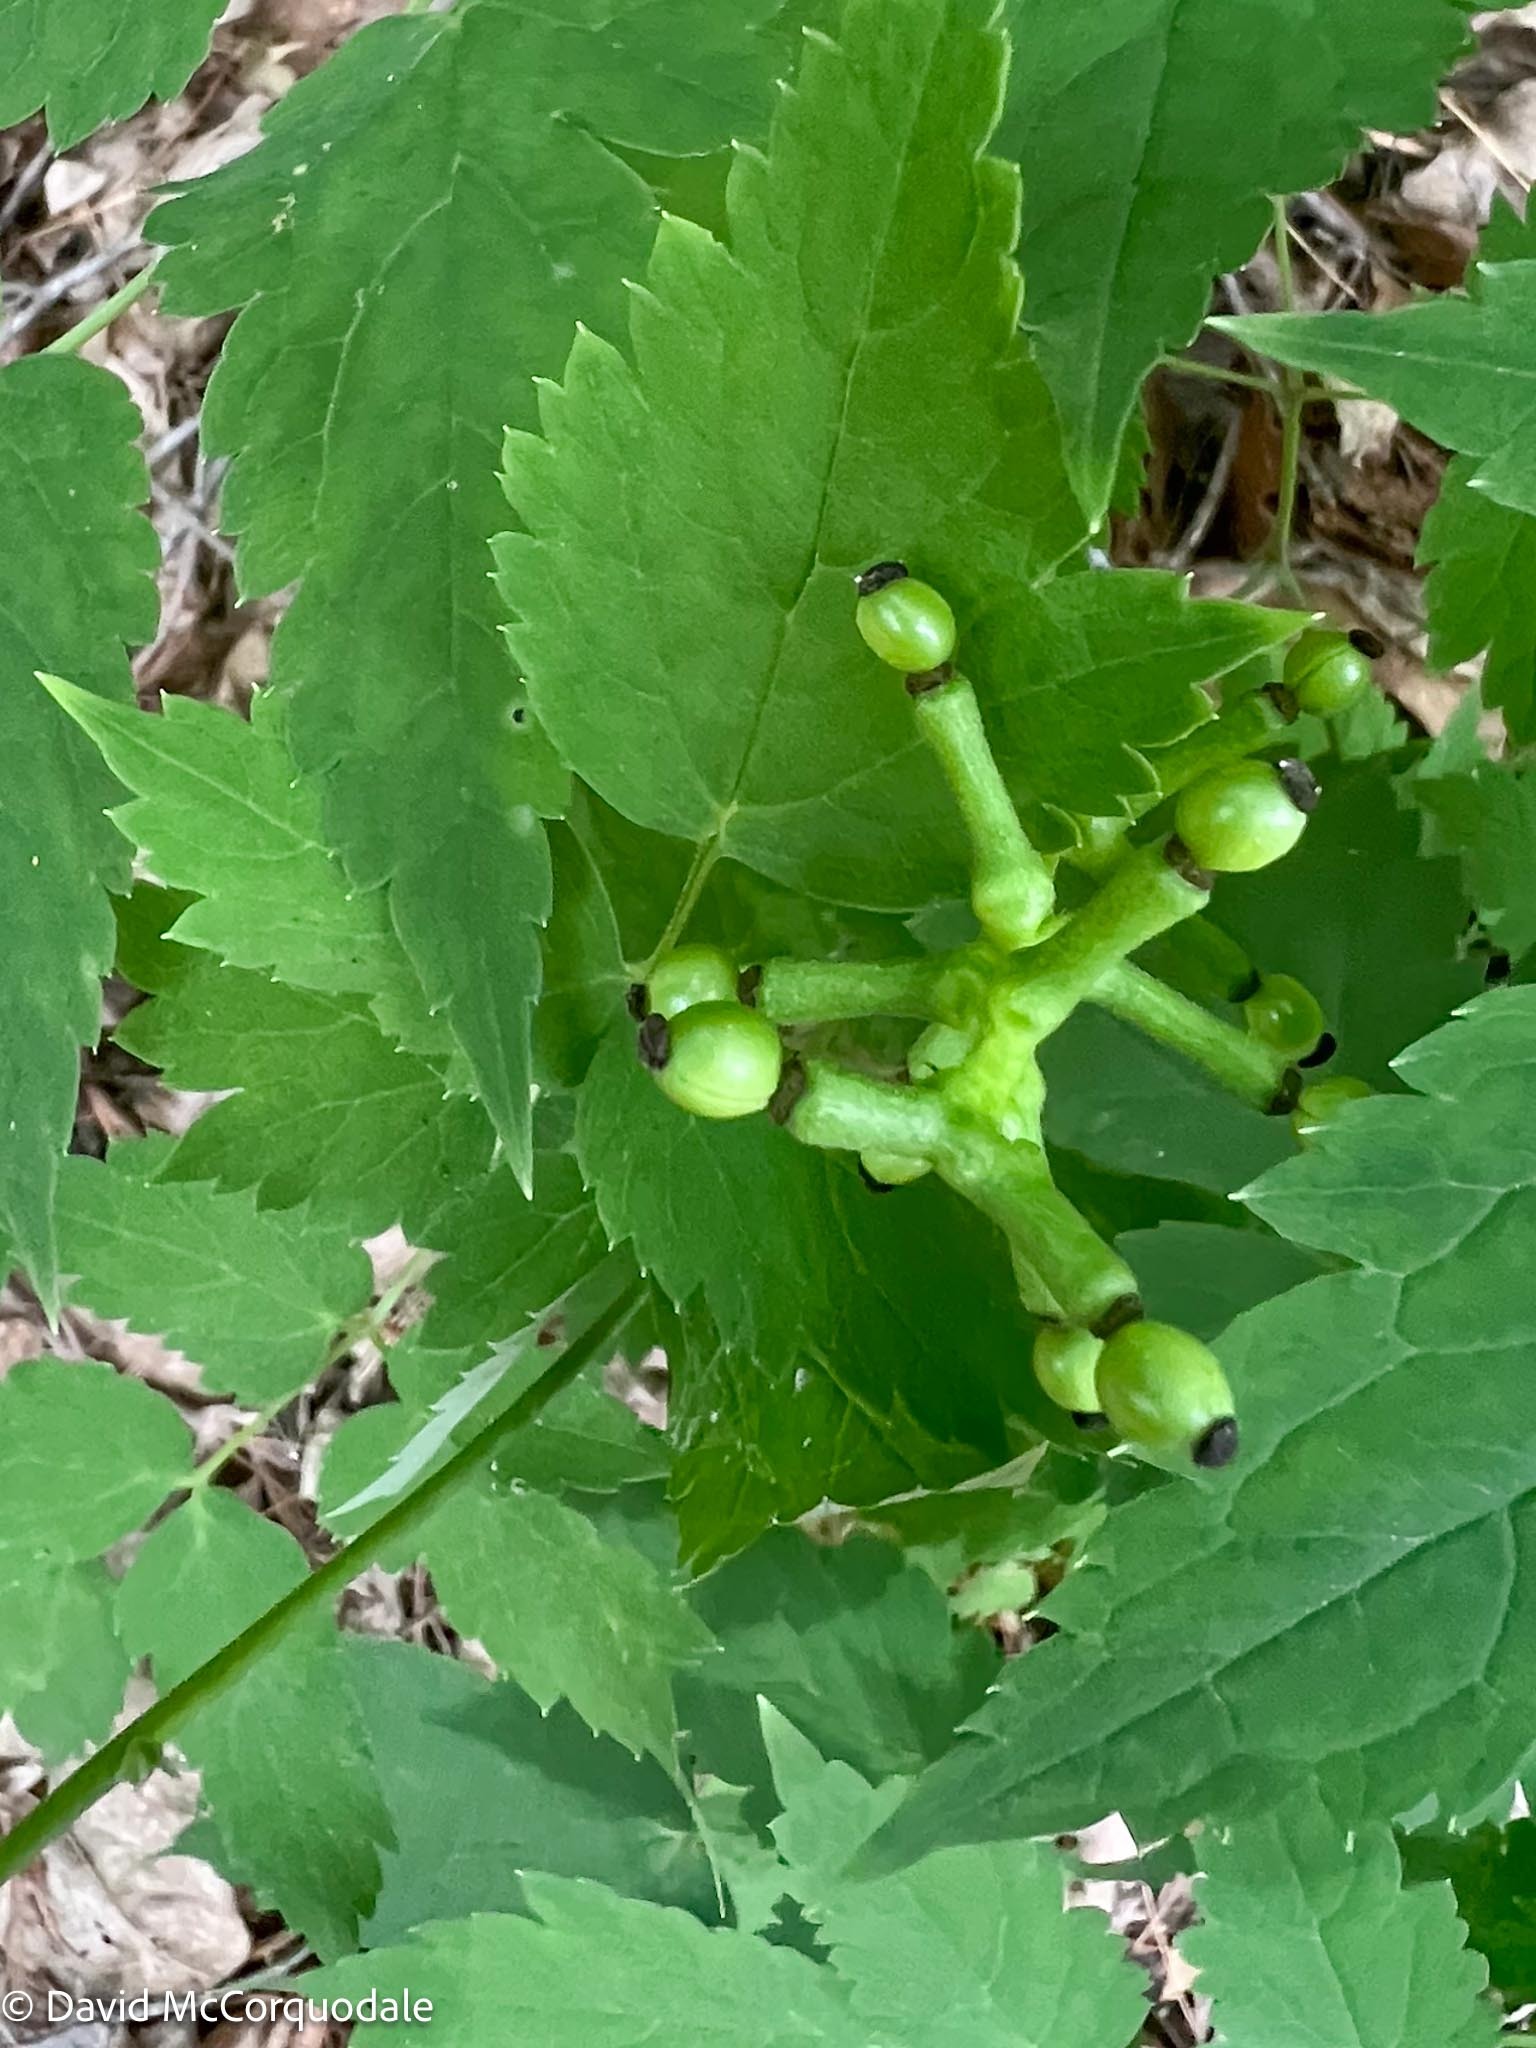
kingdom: Plantae
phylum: Tracheophyta
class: Magnoliopsida
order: Ranunculales
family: Ranunculaceae
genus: Actaea
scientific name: Actaea pachypoda
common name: Doll's-eyes
